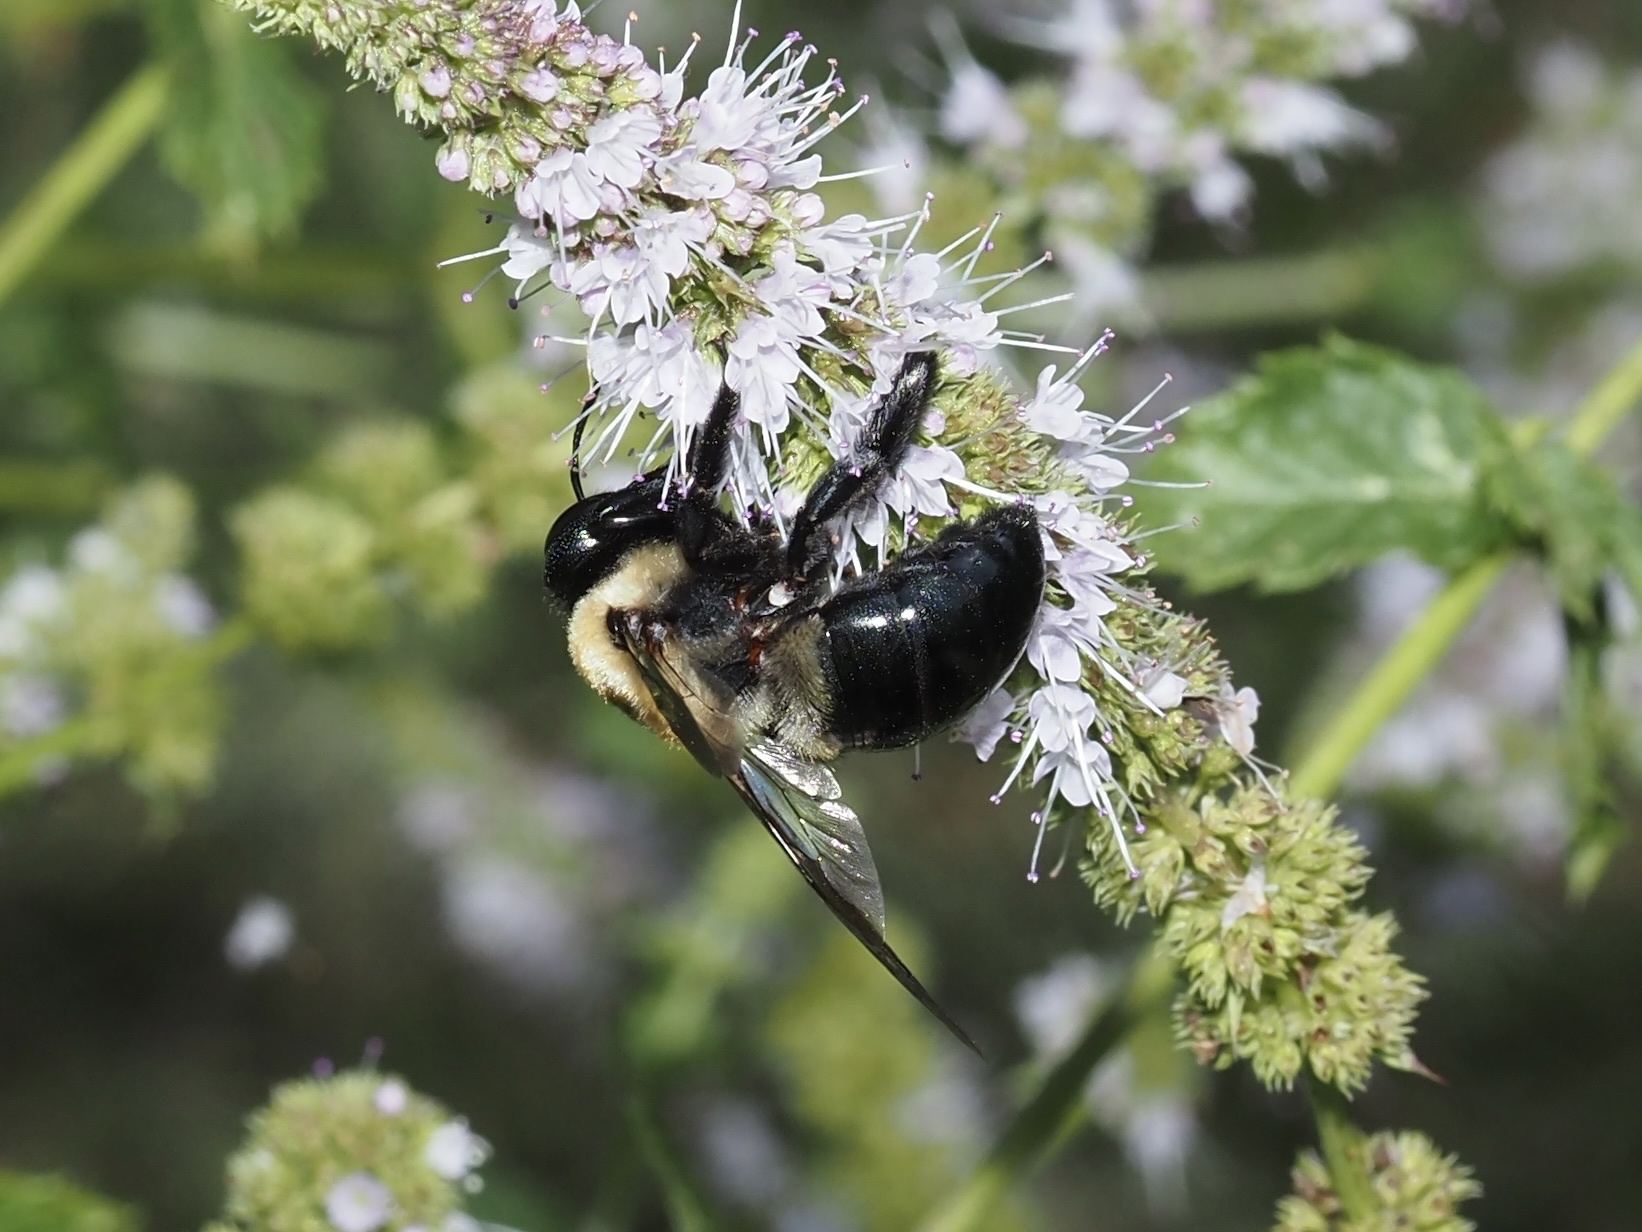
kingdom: Animalia
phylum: Arthropoda
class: Insecta
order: Hymenoptera
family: Apidae
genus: Xylocopa
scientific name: Xylocopa virginica
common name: Carpenter bee
